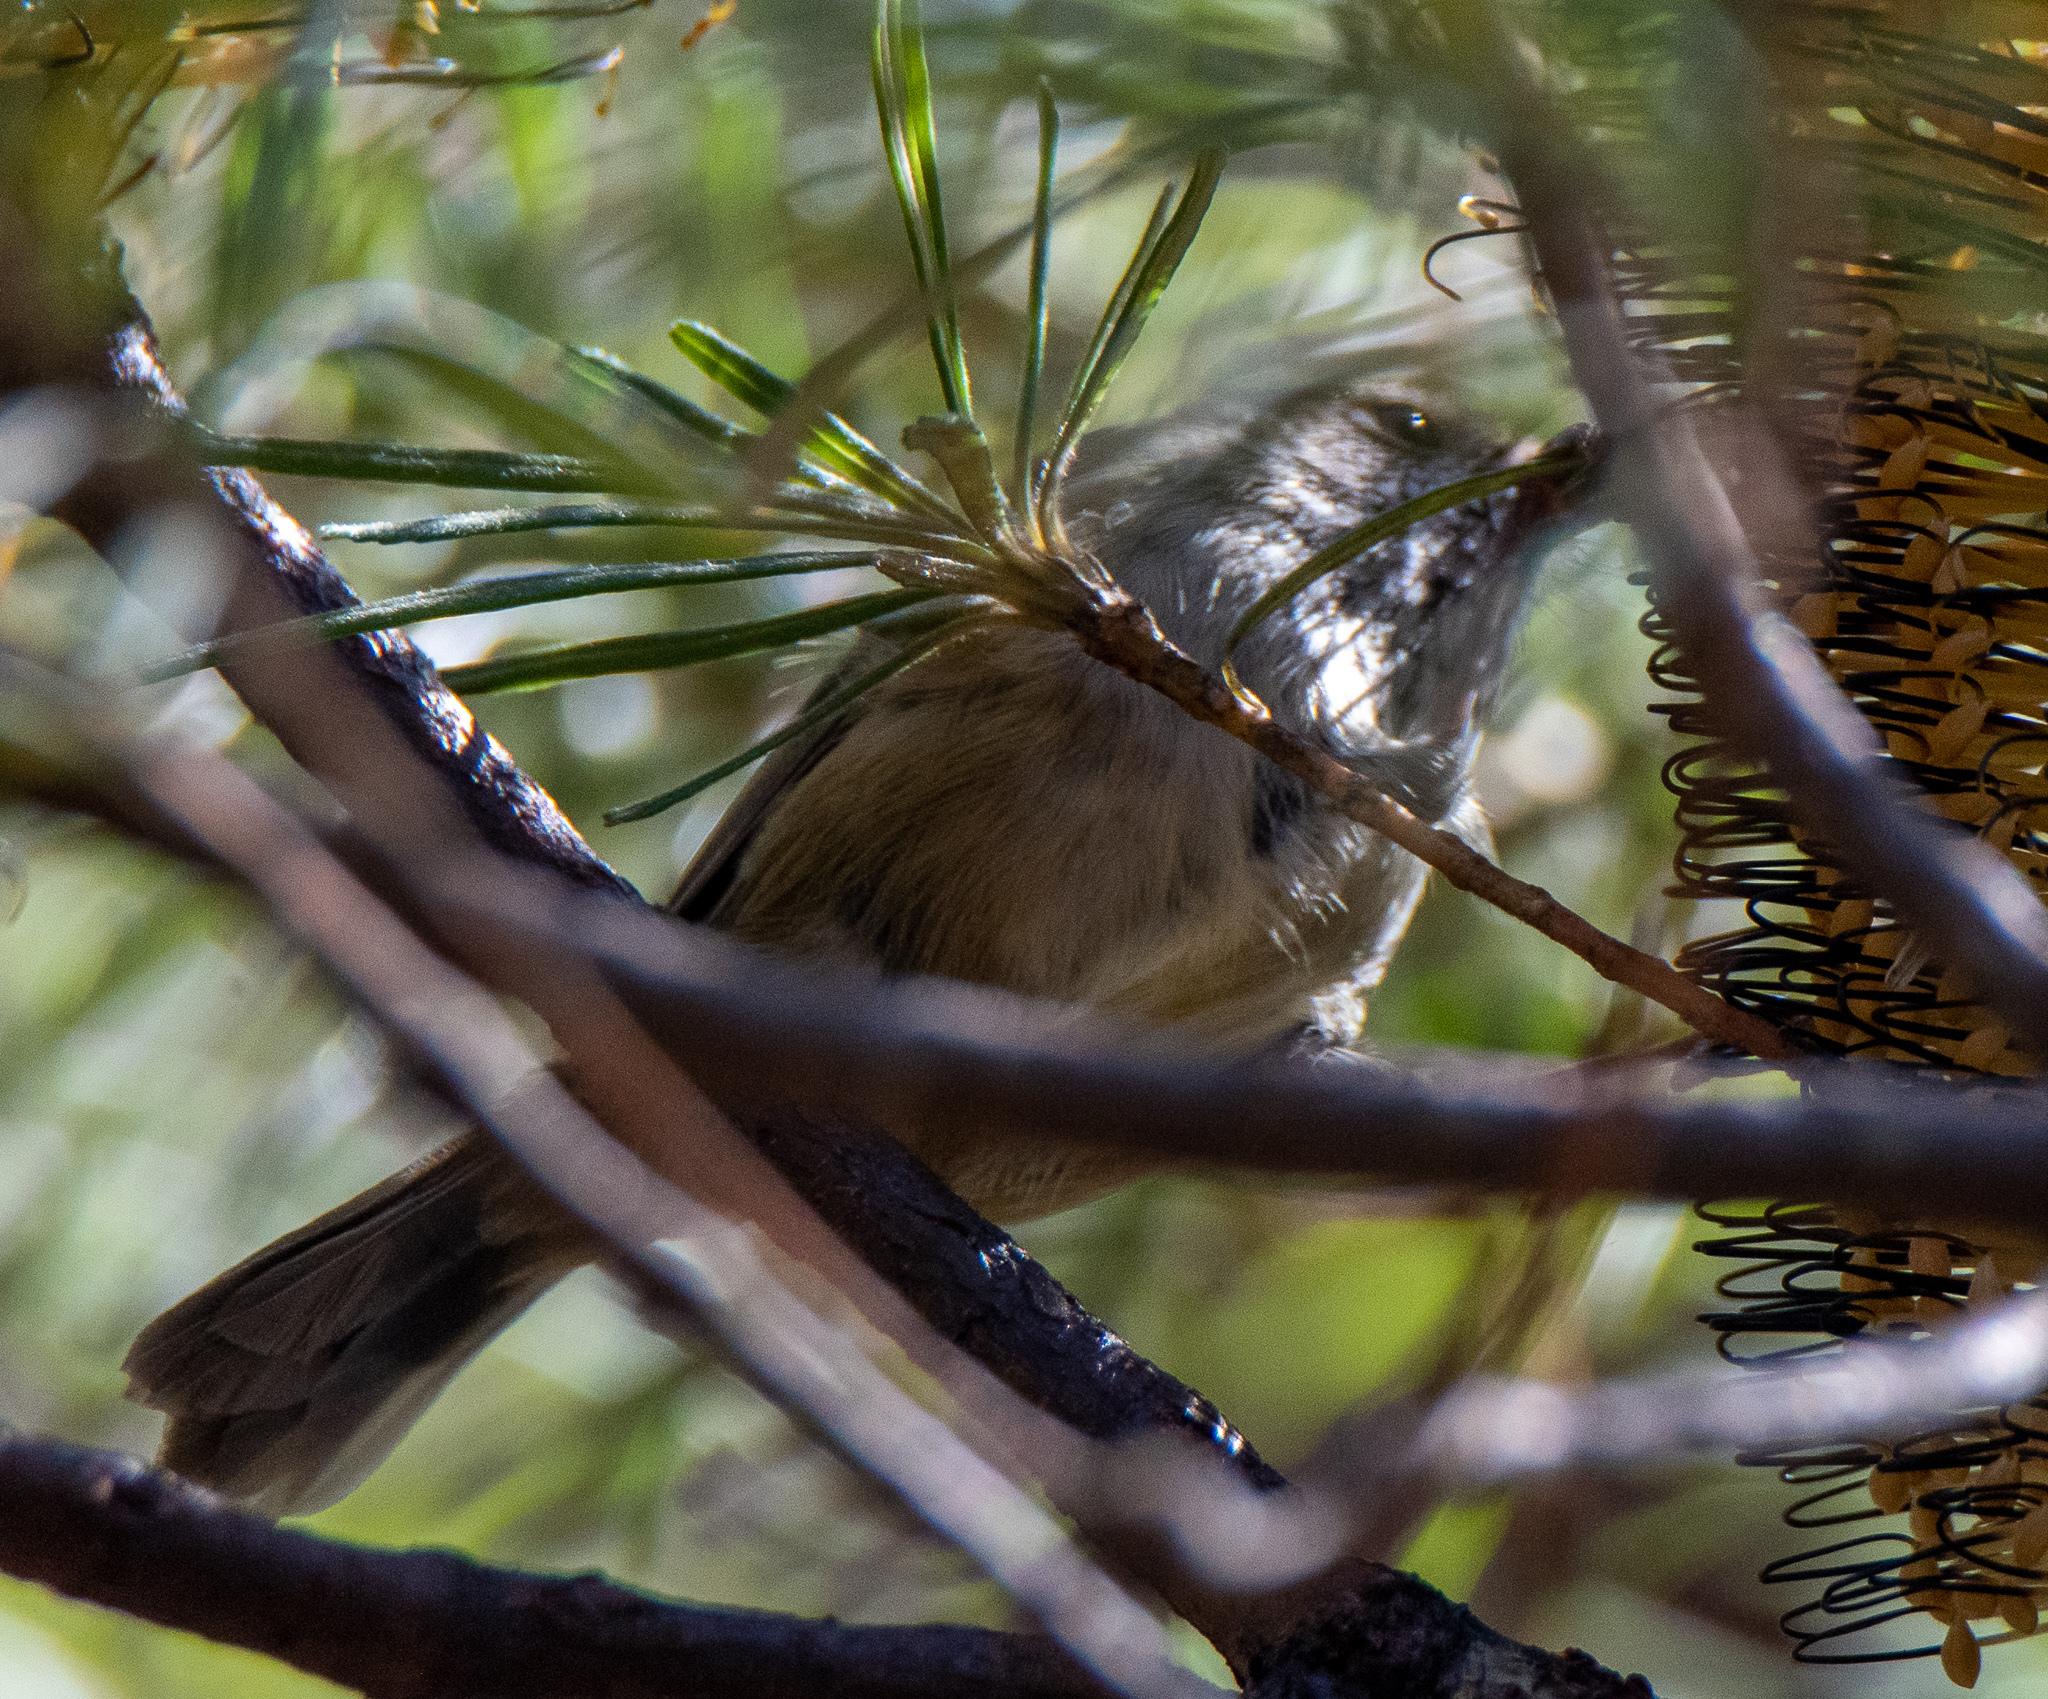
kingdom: Animalia
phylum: Chordata
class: Aves
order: Passeriformes
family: Acanthizidae
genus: Acanthiza
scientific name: Acanthiza pusilla
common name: Brown thornbill
